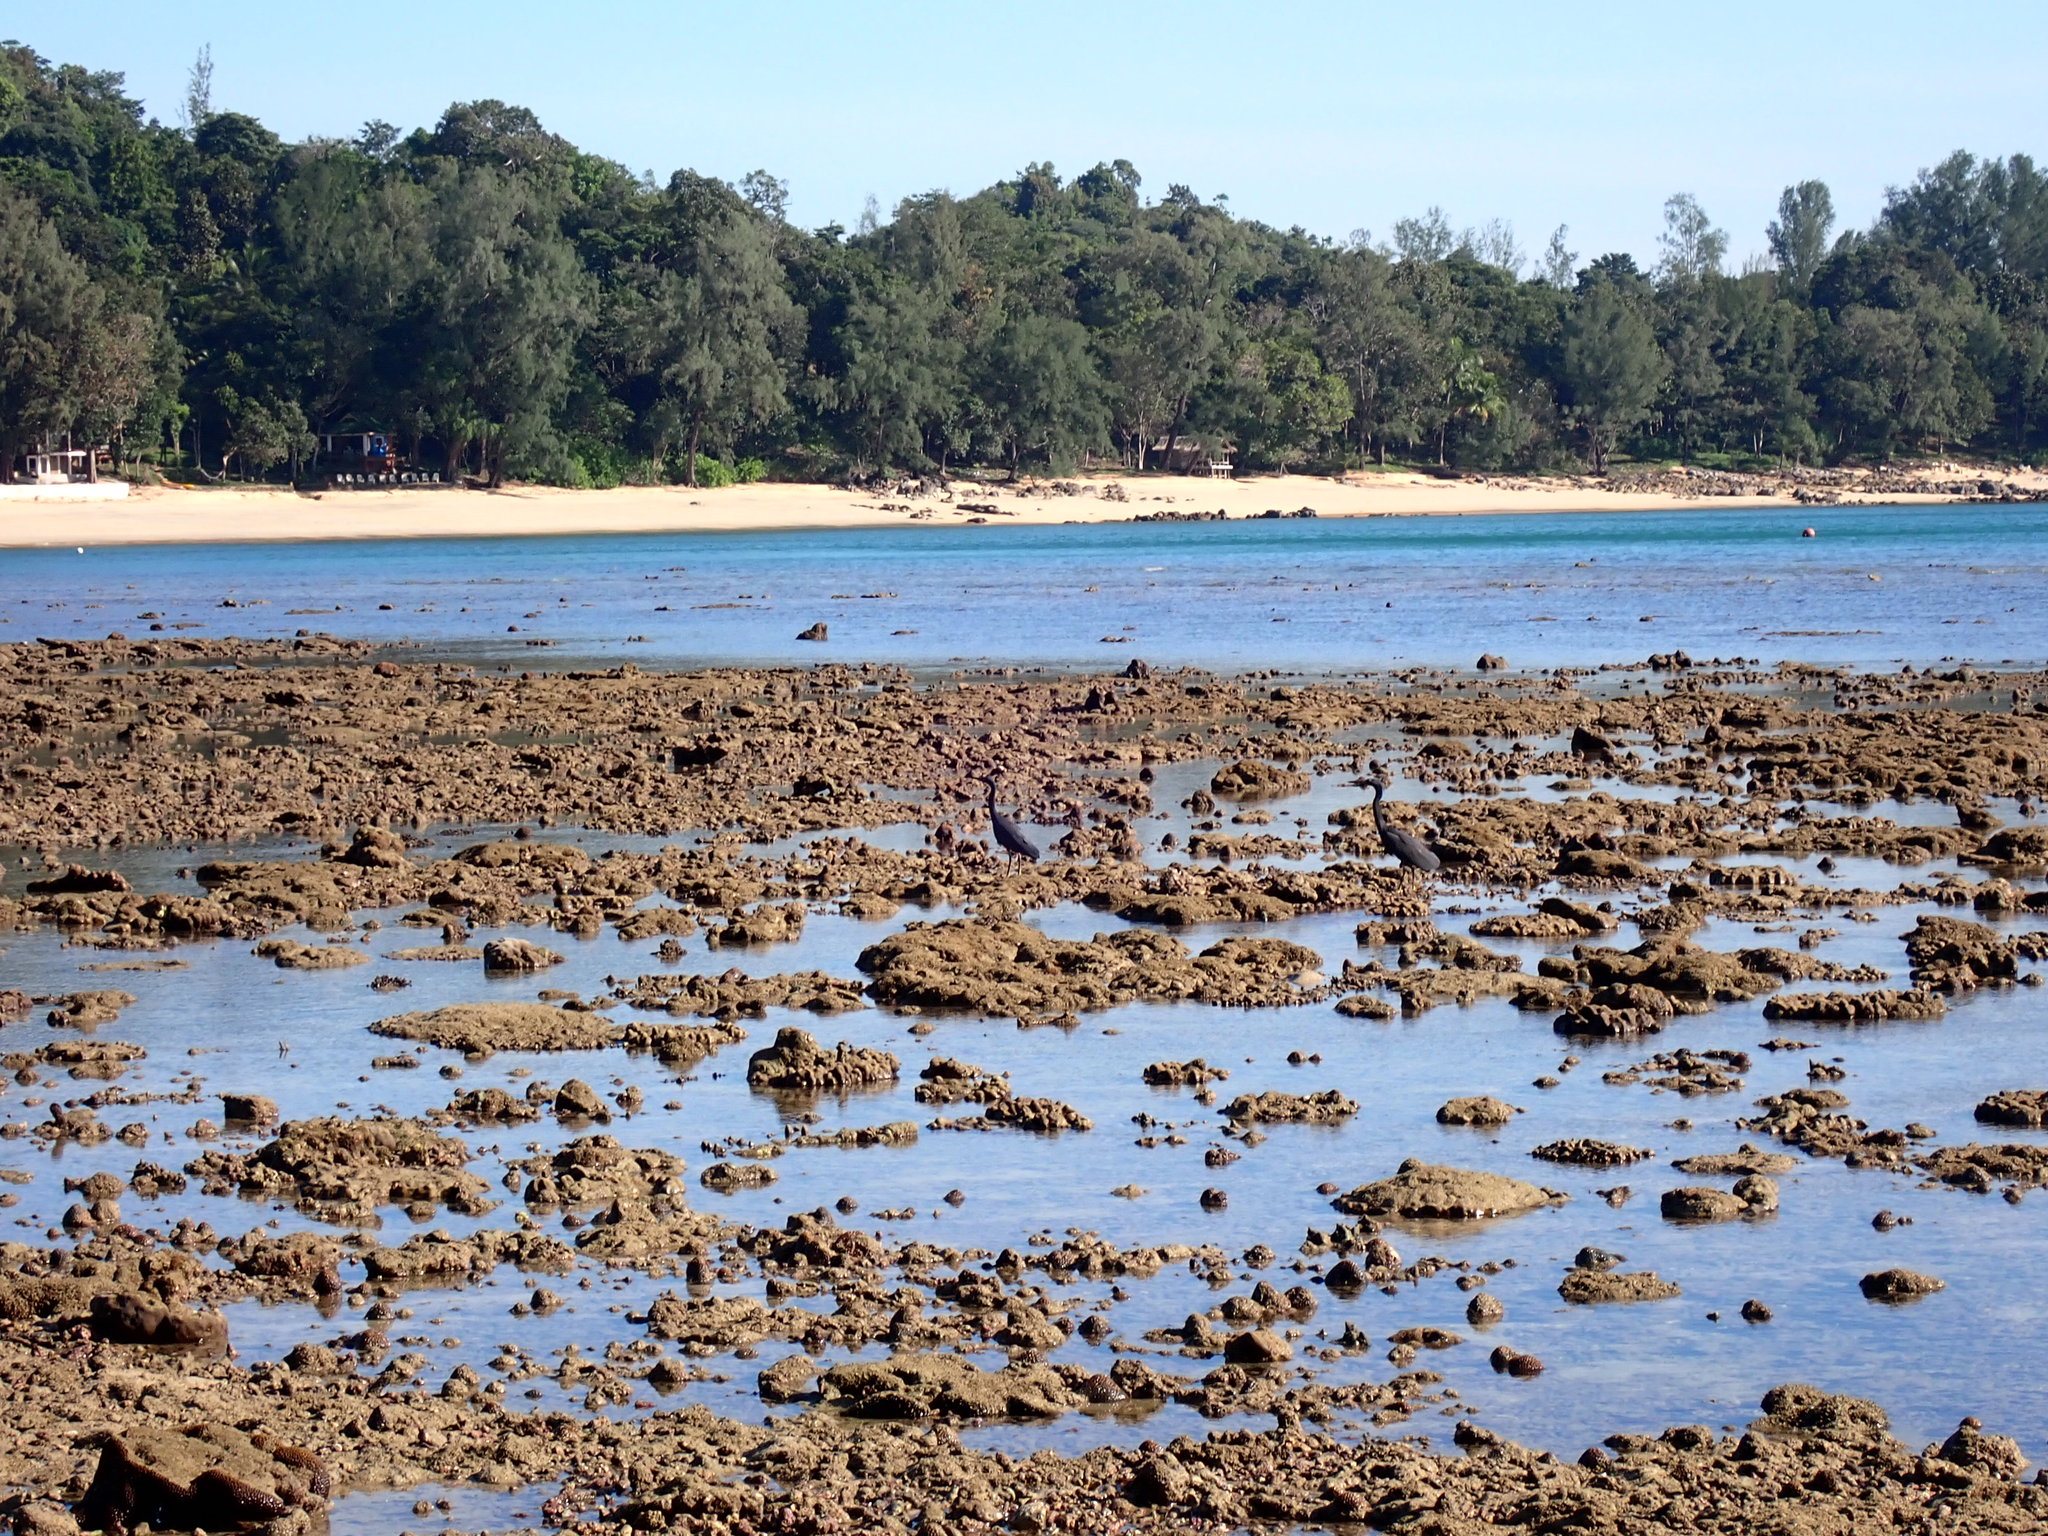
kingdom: Animalia
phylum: Chordata
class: Aves
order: Pelecaniformes
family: Ardeidae
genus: Egretta
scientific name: Egretta sacra
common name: Pacific reef heron
